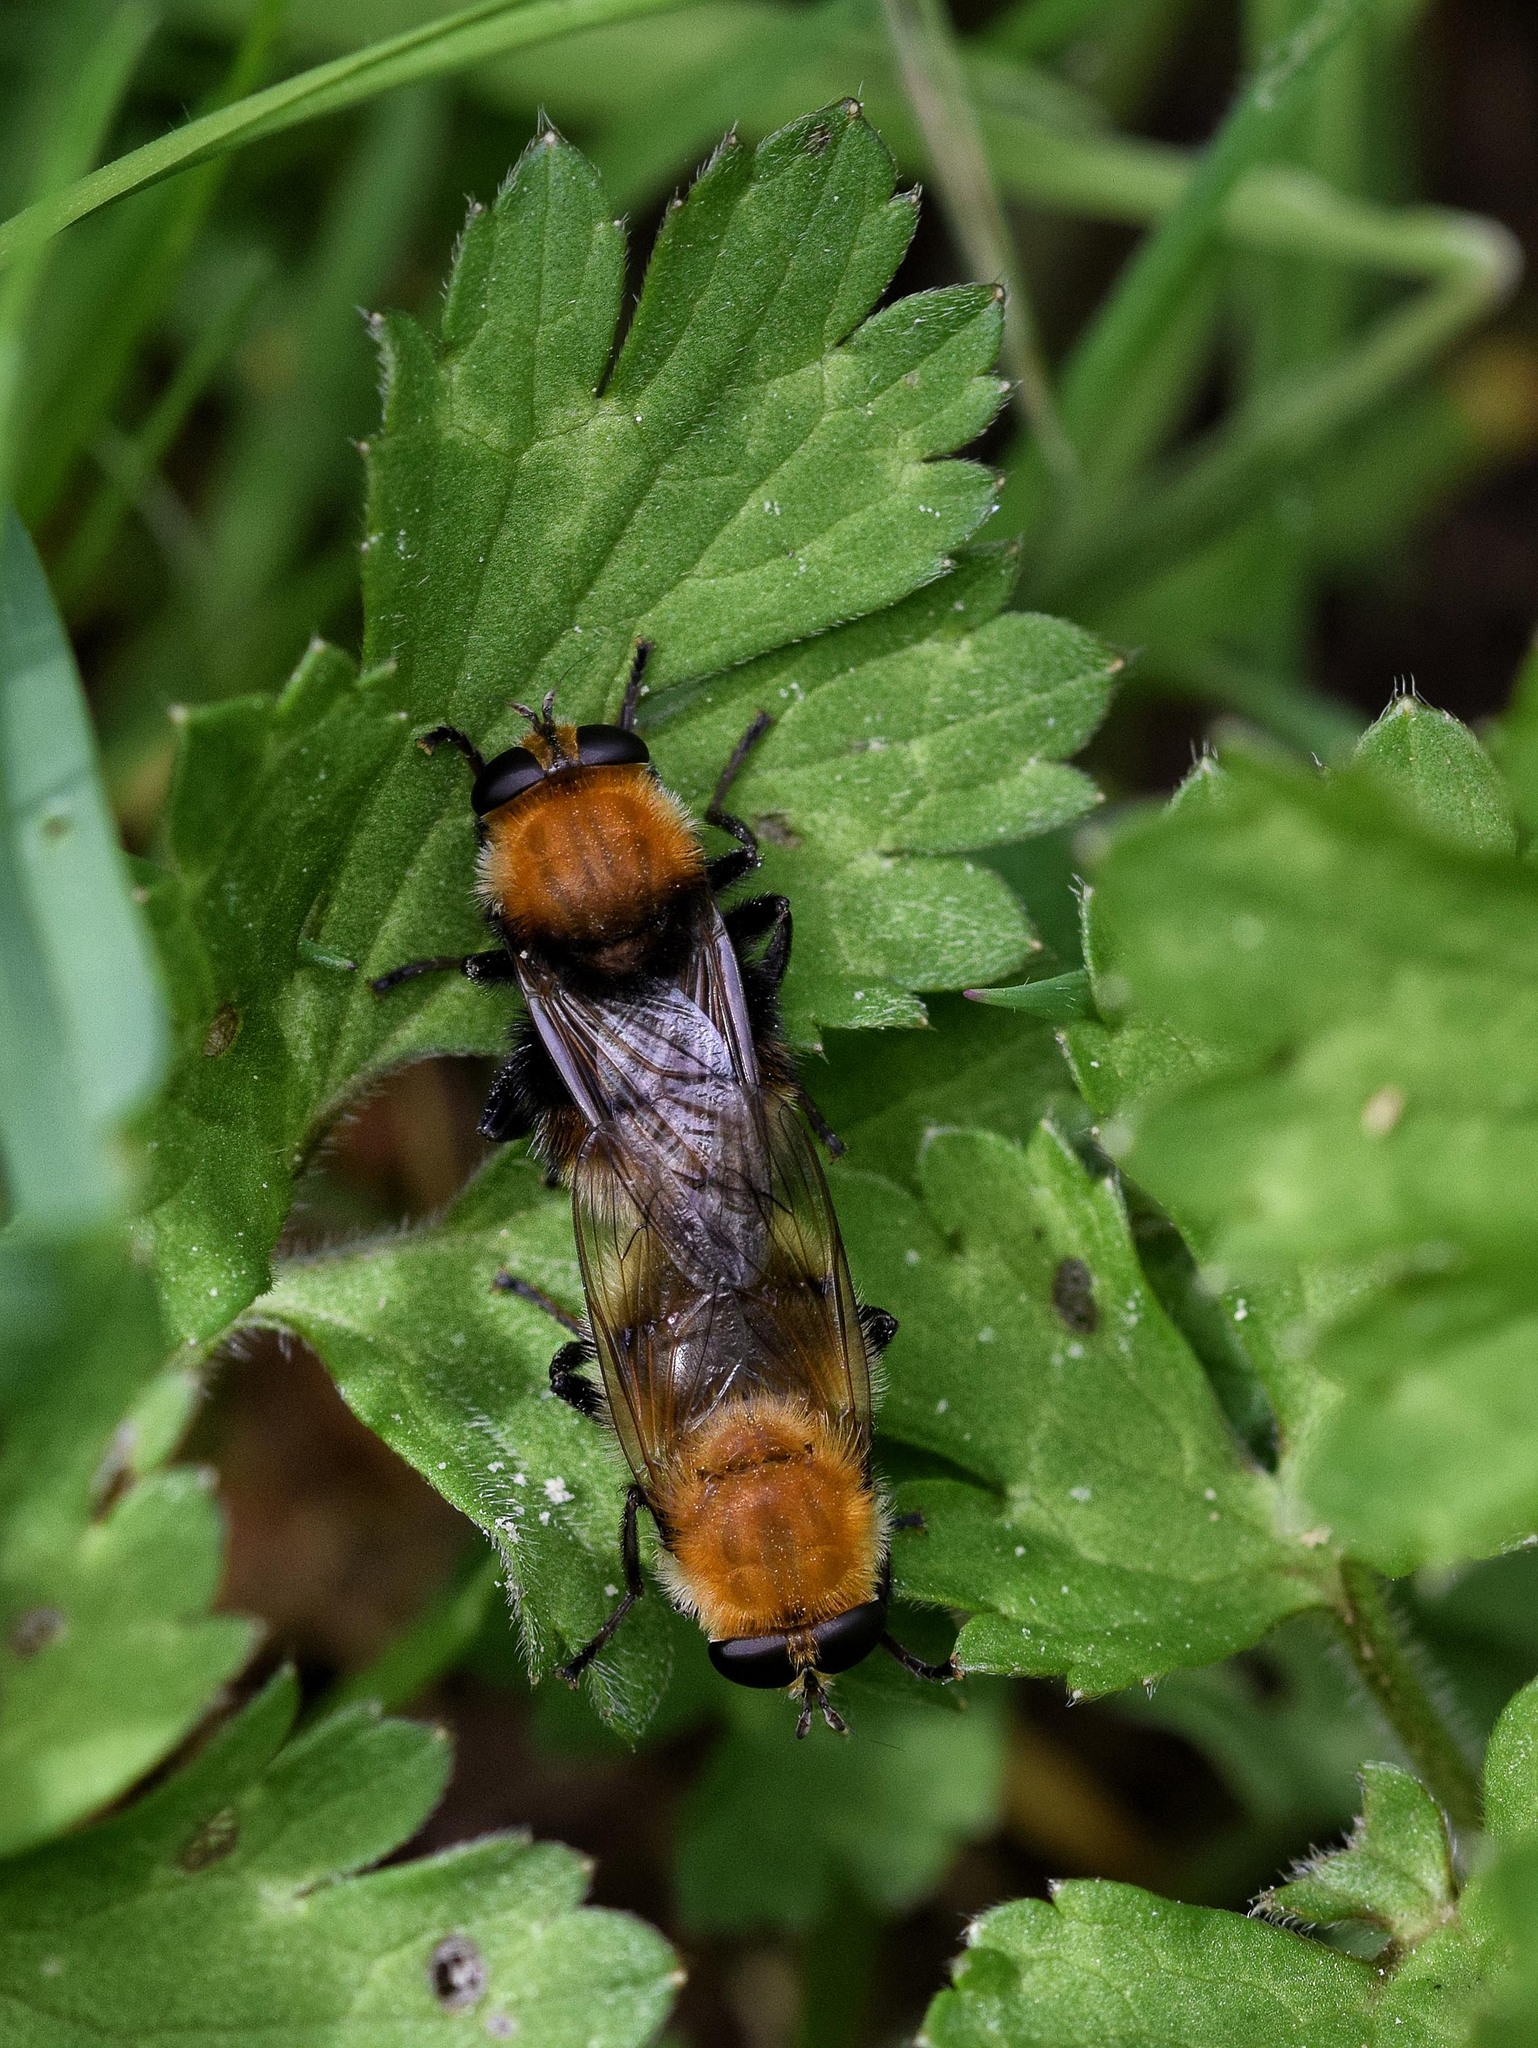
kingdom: Animalia
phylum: Arthropoda
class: Insecta
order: Diptera
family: Syrphidae
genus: Criorhina
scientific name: Criorhina berberina
